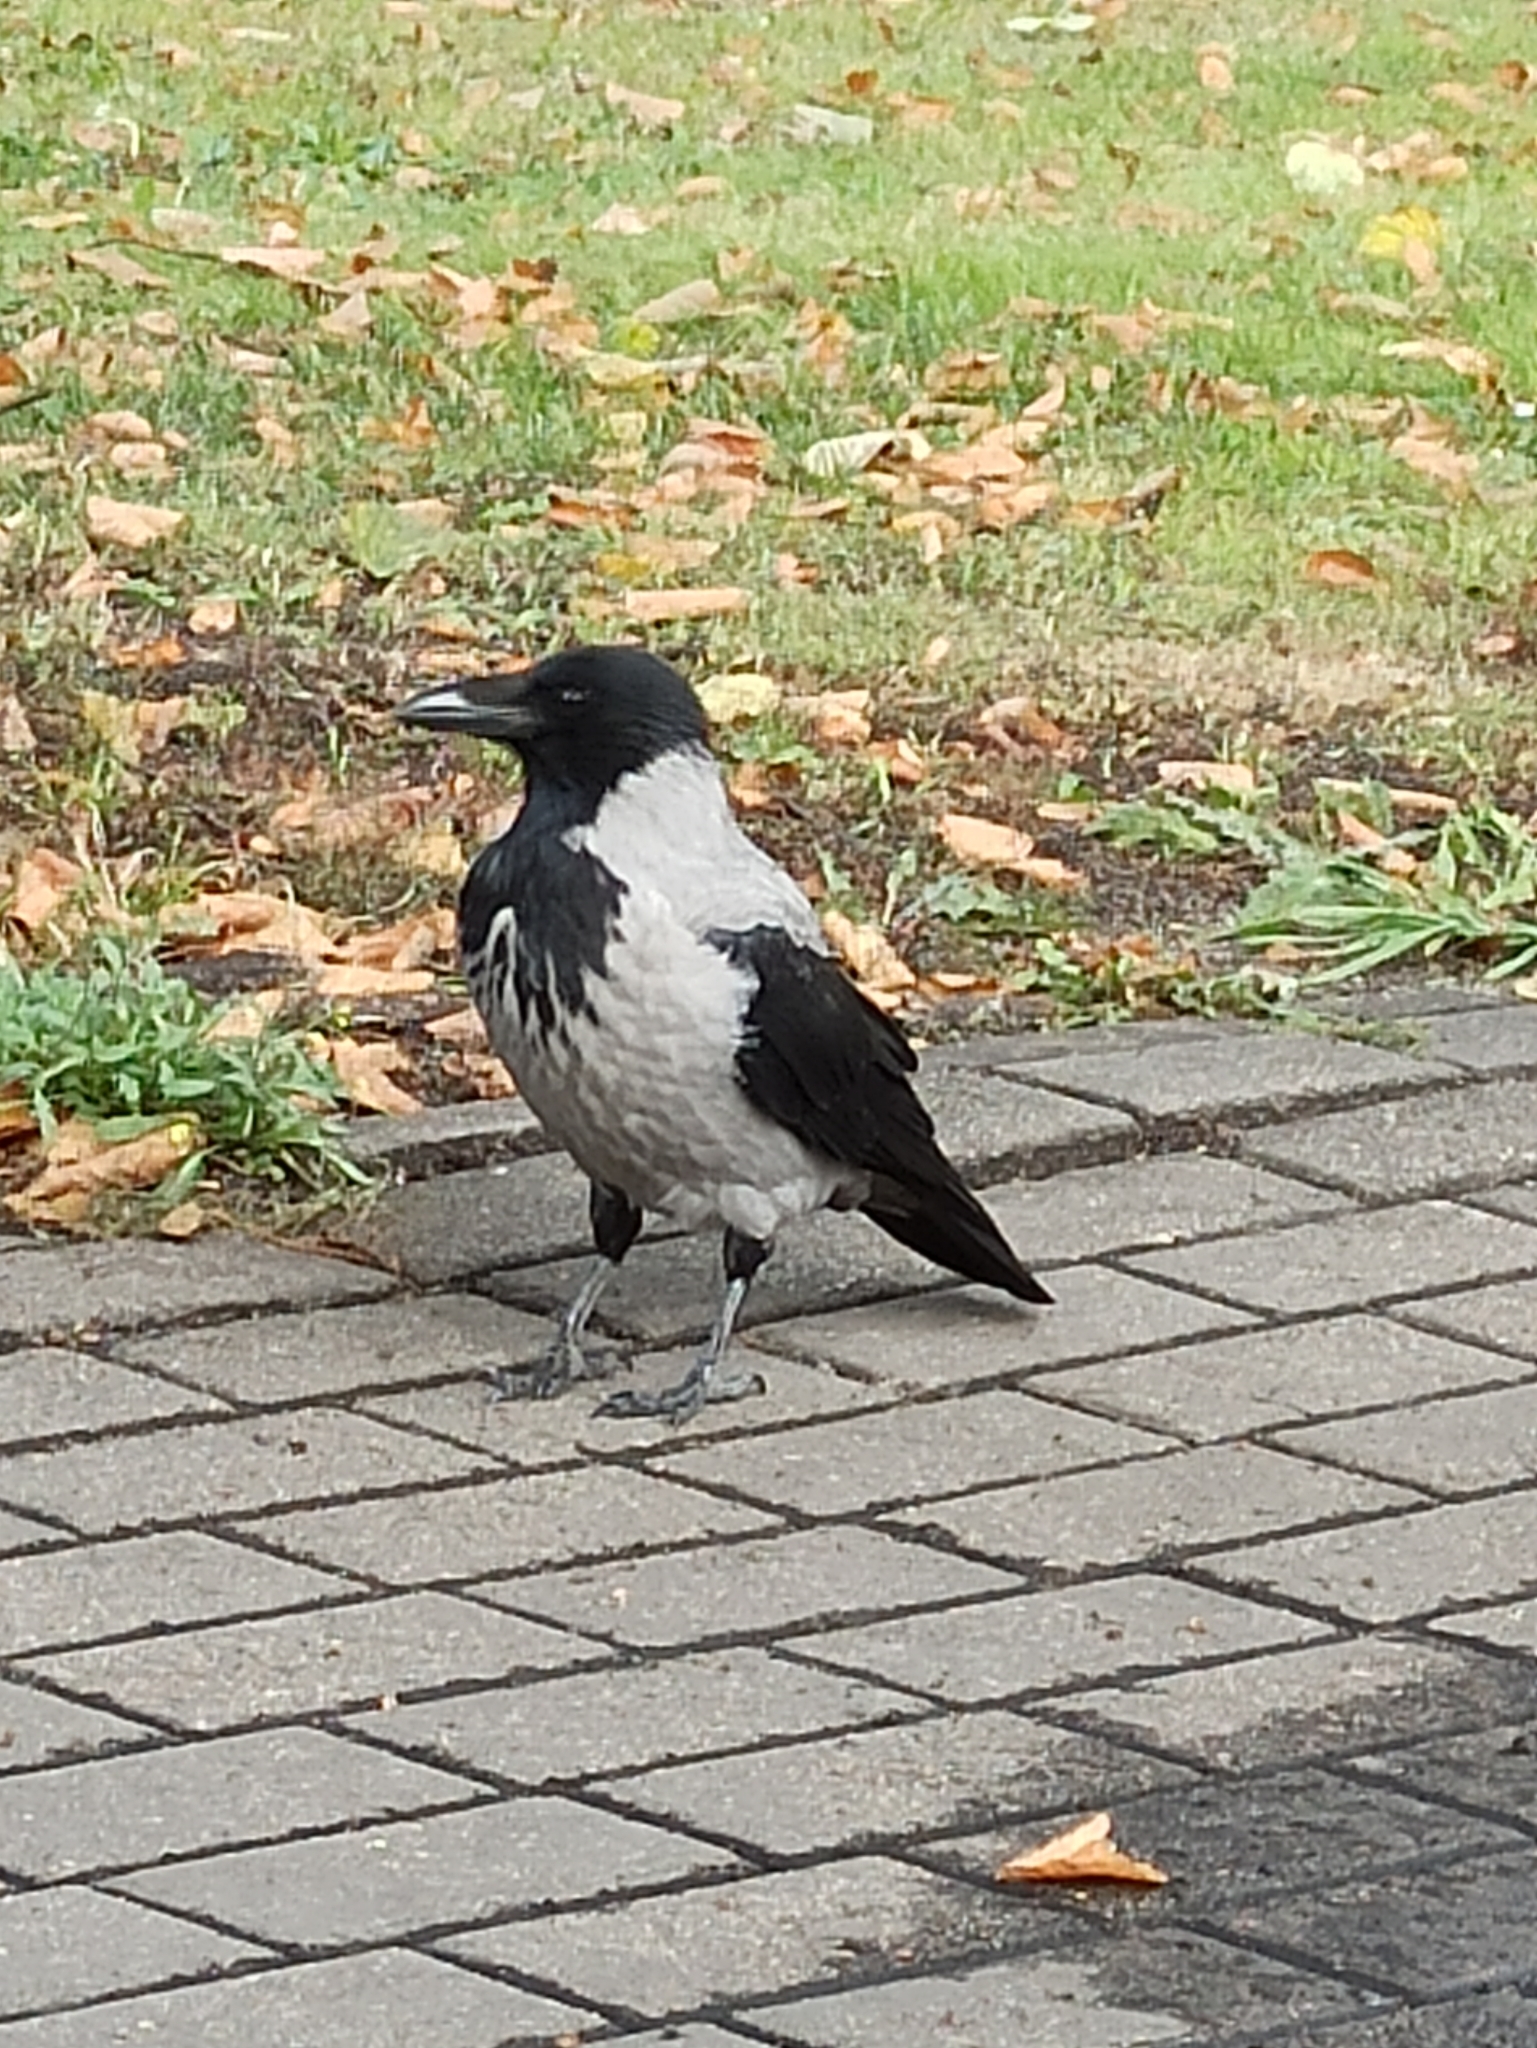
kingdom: Animalia
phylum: Chordata
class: Aves
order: Passeriformes
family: Corvidae
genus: Corvus
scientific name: Corvus cornix
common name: Hooded crow
